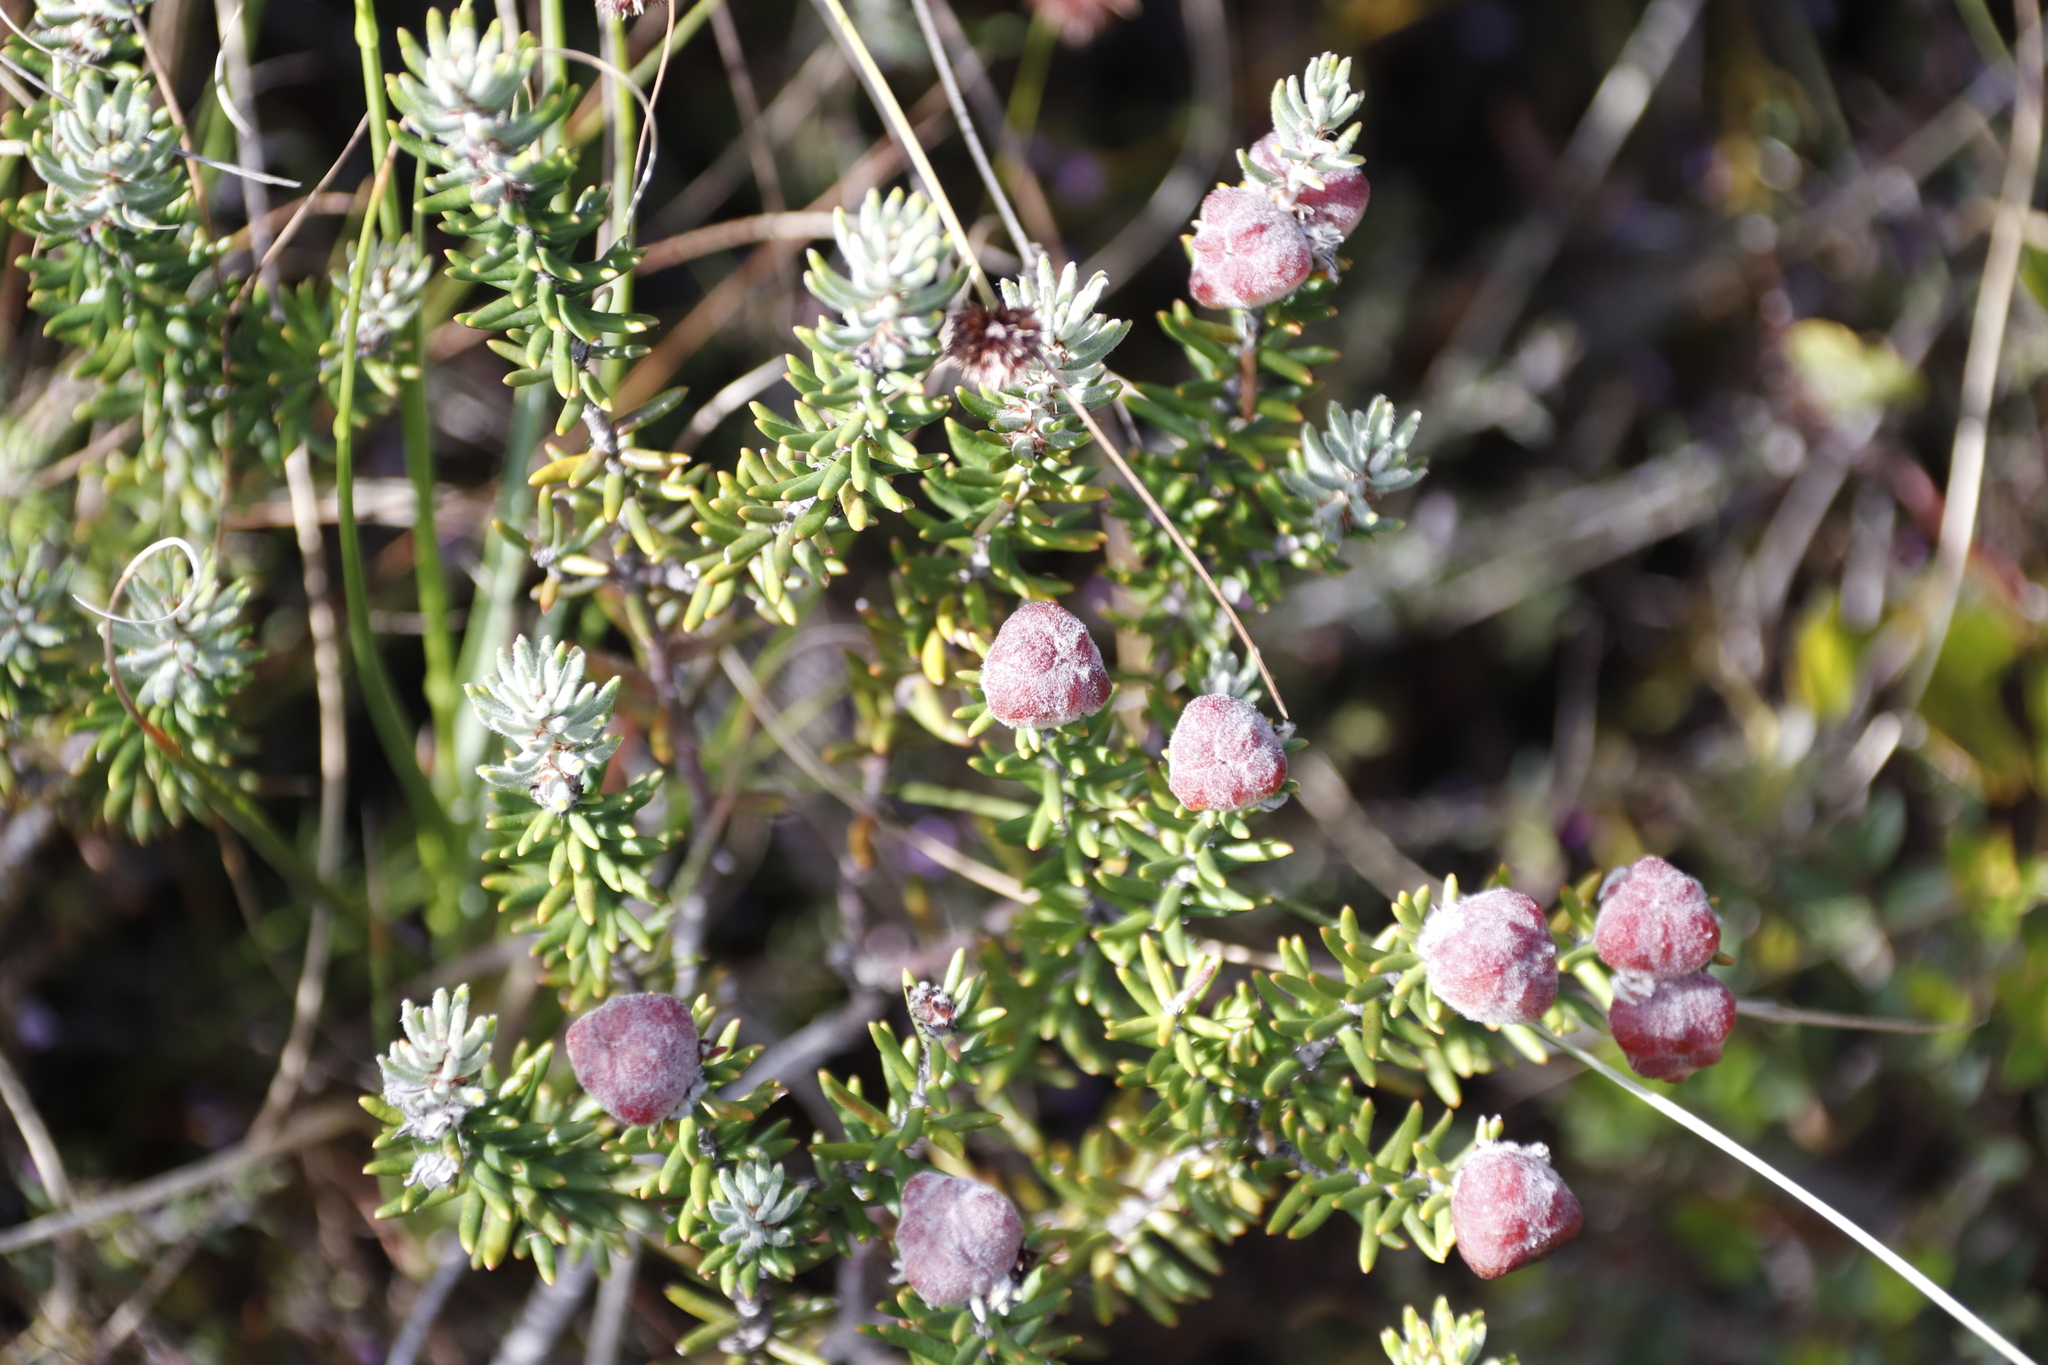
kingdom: Plantae
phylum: Tracheophyta
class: Magnoliopsida
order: Rosales
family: Rhamnaceae
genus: Trichocephalus
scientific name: Trichocephalus stipularis
